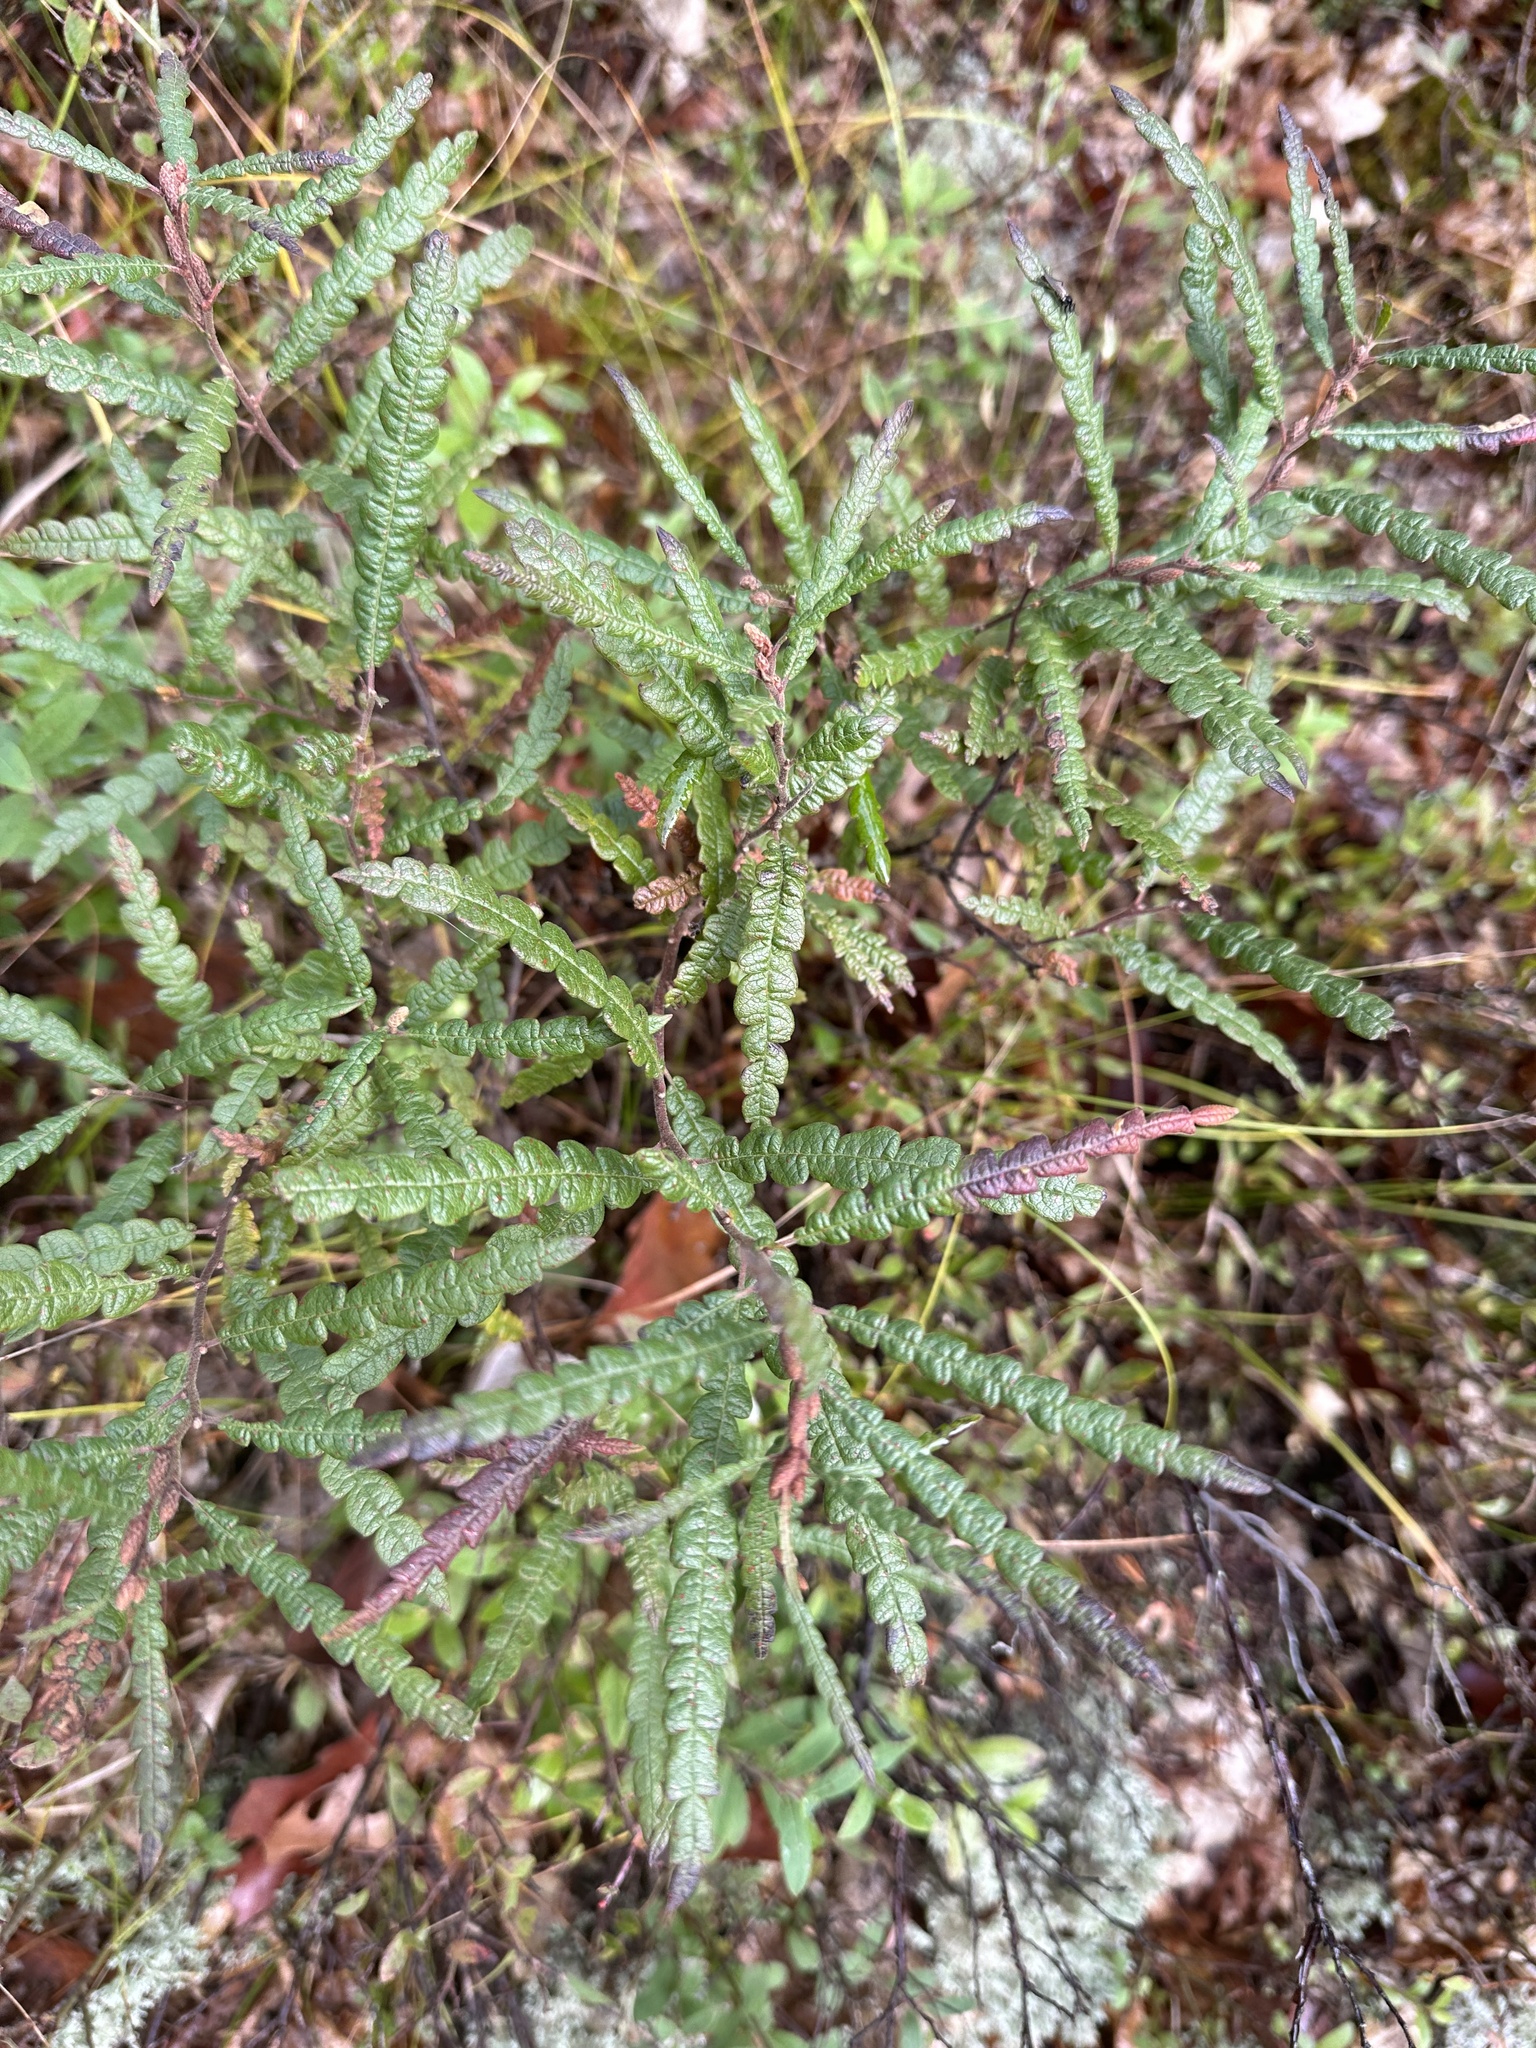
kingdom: Plantae
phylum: Tracheophyta
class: Magnoliopsida
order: Fagales
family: Myricaceae
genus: Comptonia
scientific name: Comptonia peregrina
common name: Sweet-fern
